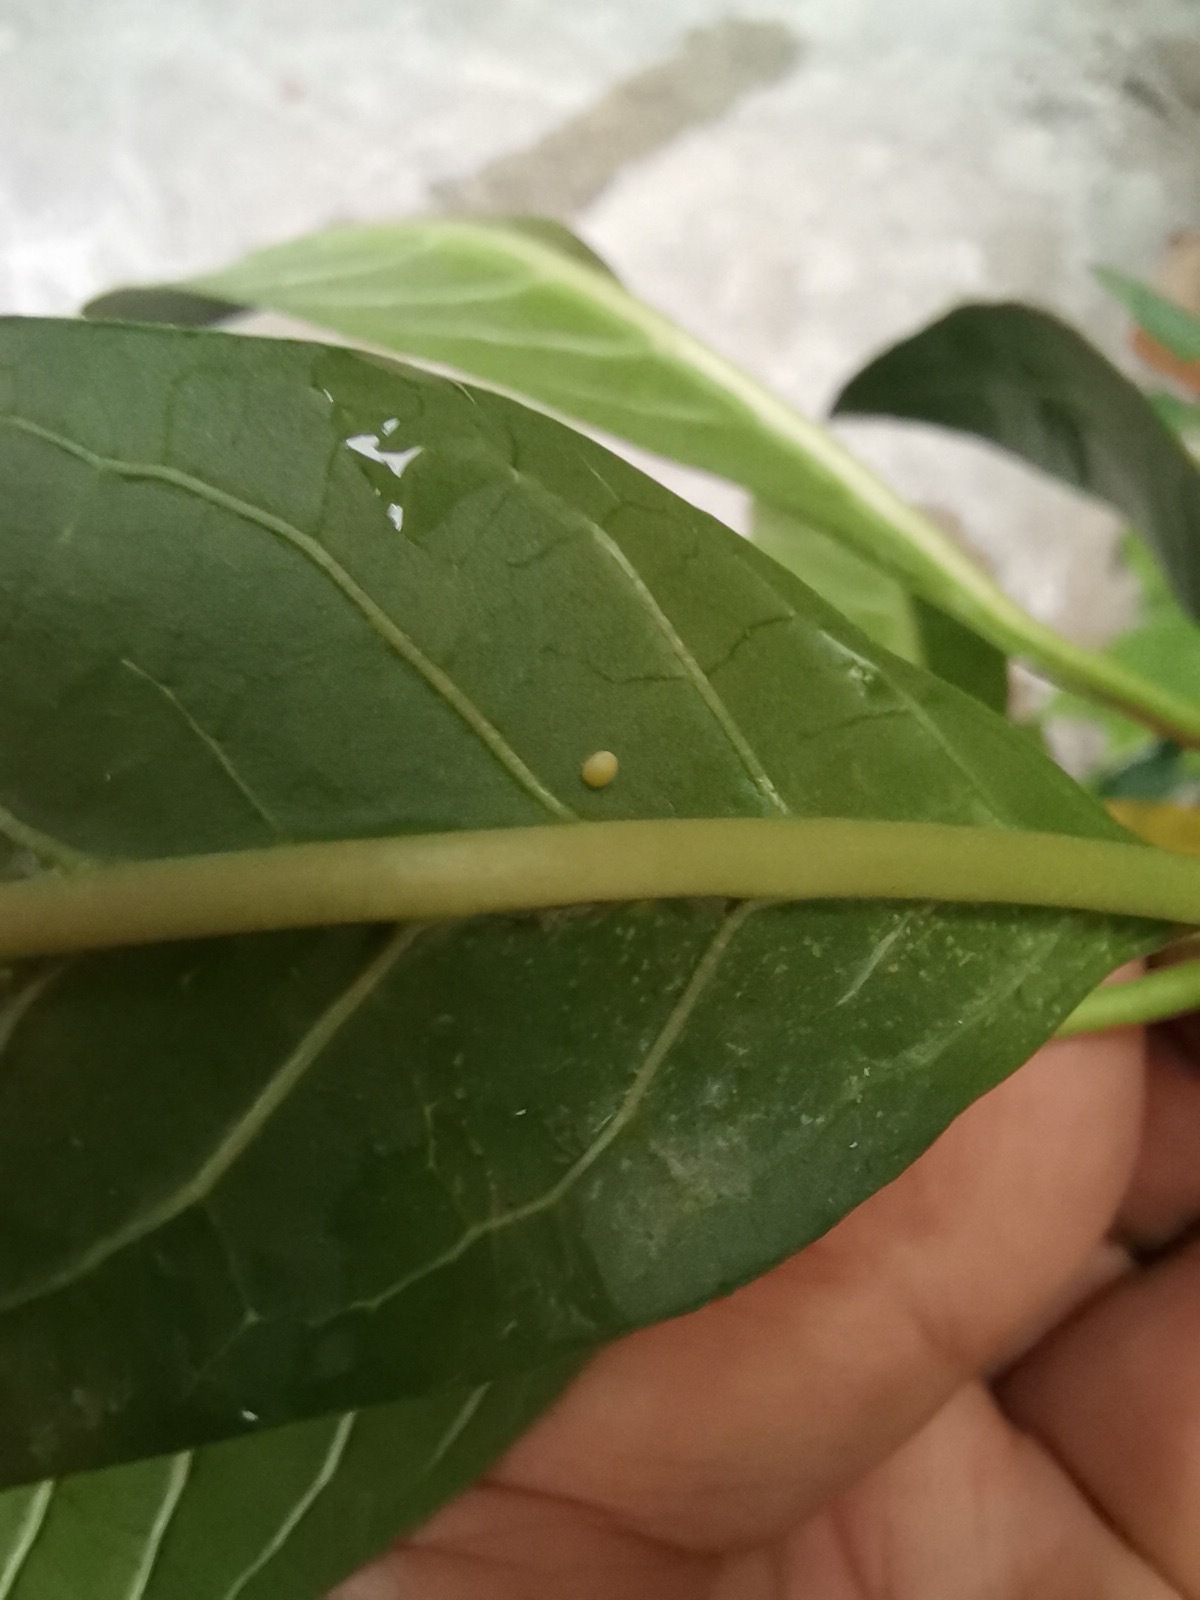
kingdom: Animalia
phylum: Arthropoda
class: Insecta
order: Lepidoptera
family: Nymphalidae
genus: Danaus
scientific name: Danaus plexippus
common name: Monarch
